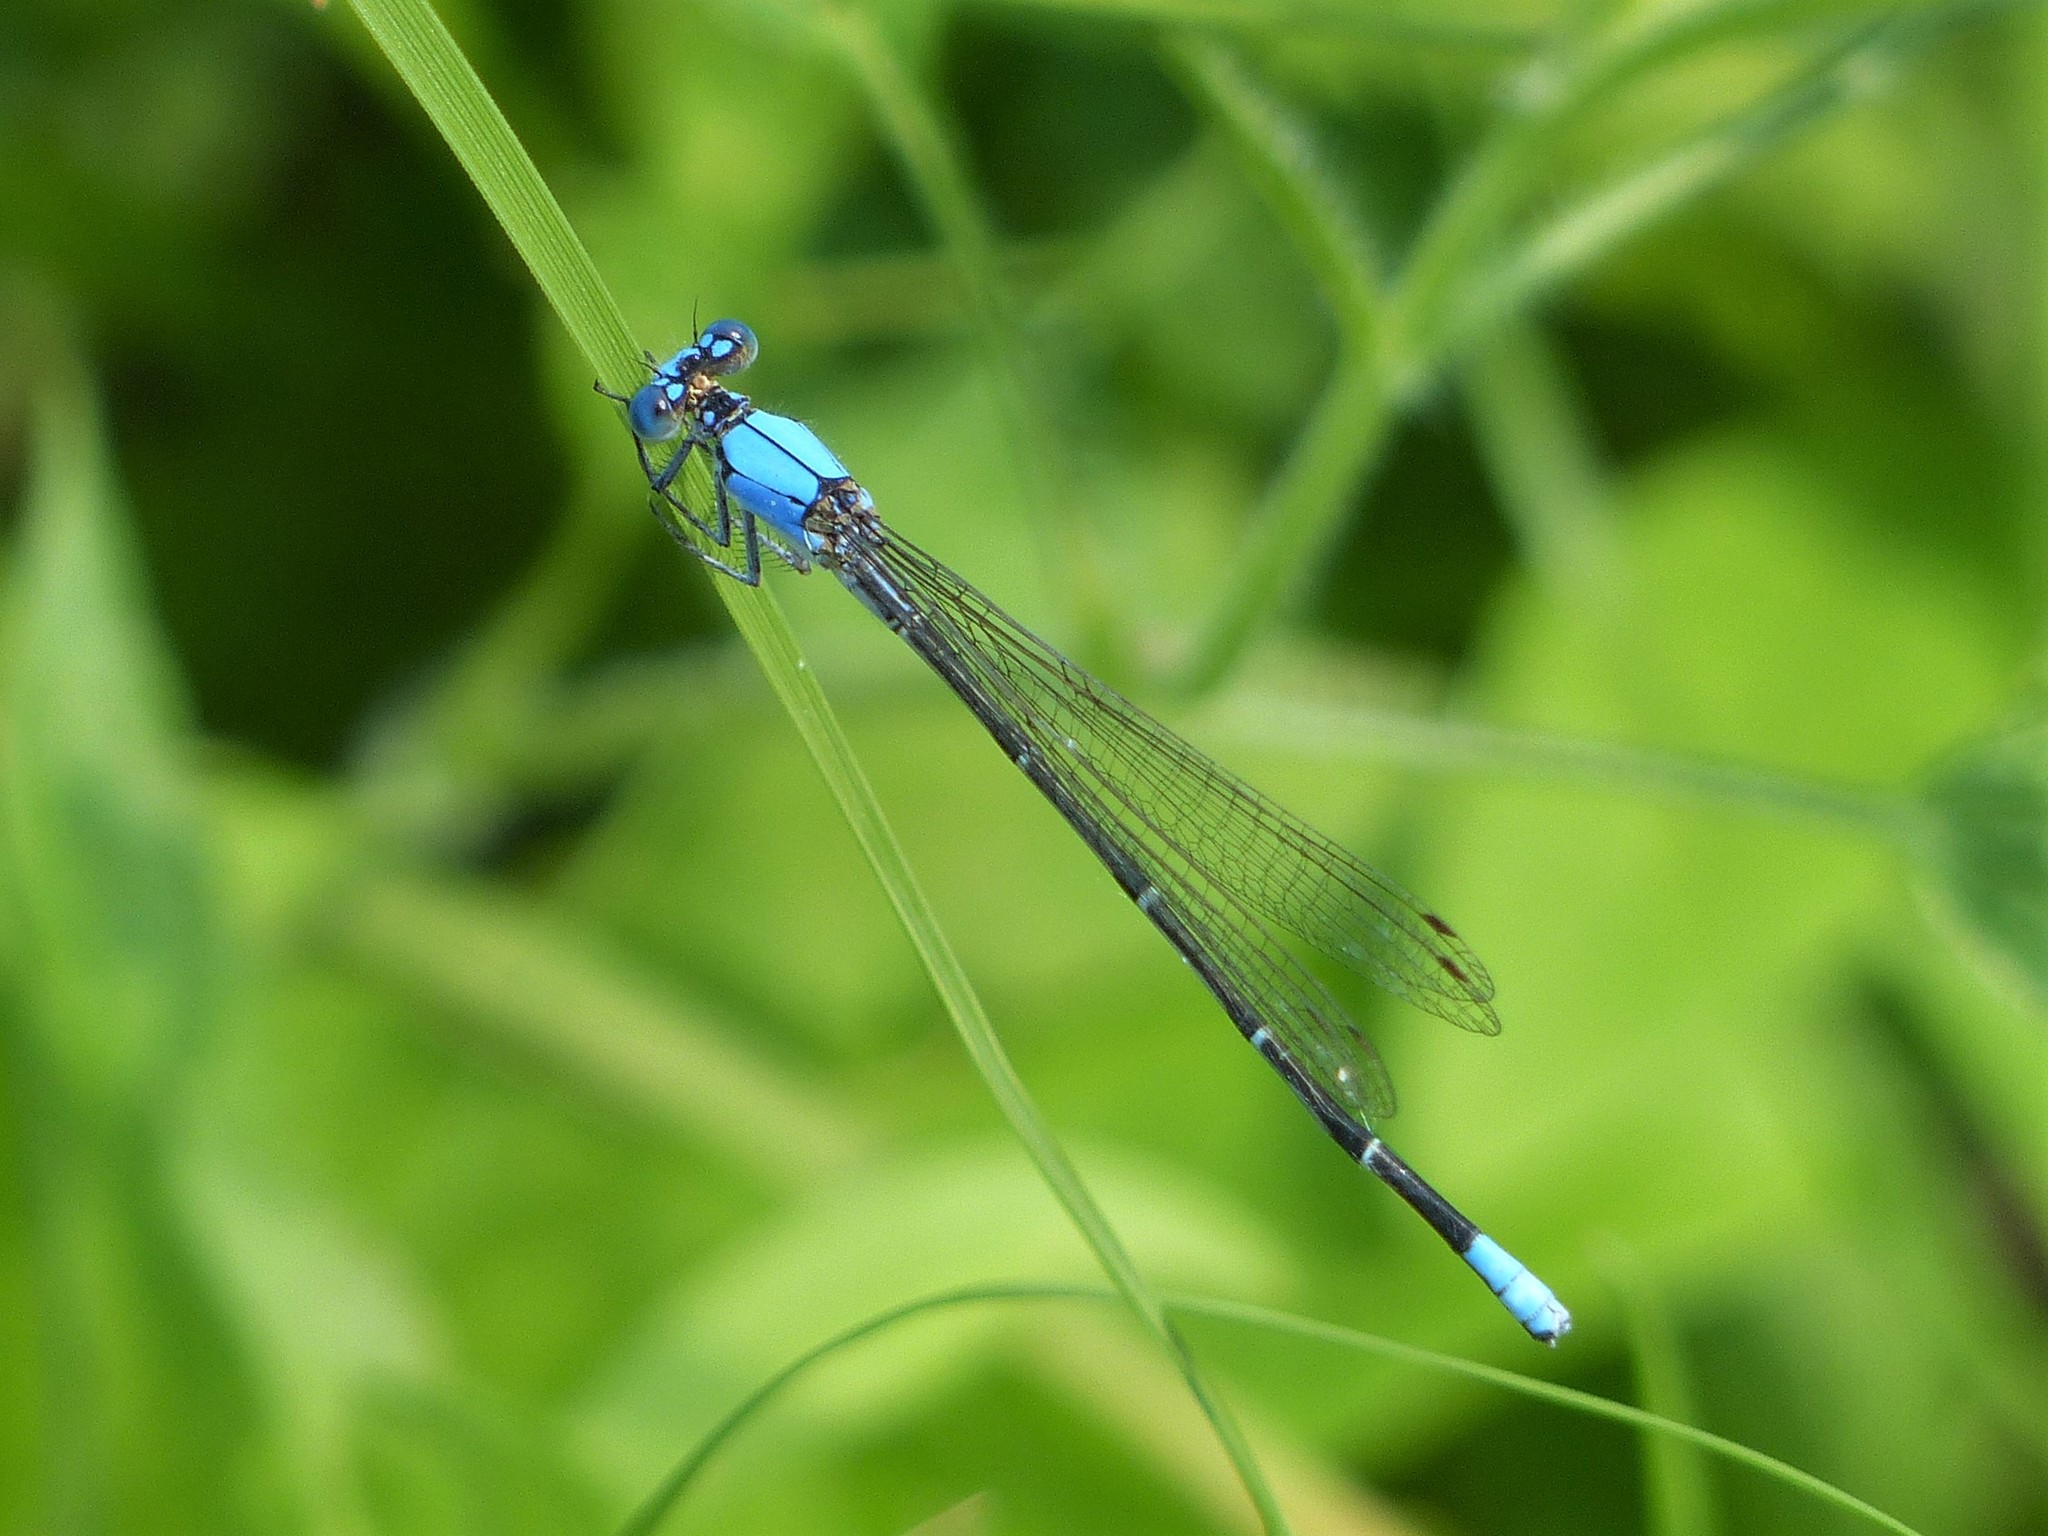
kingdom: Animalia
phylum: Arthropoda
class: Insecta
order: Odonata
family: Coenagrionidae
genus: Argia
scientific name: Argia apicalis
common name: Blue-fronted dancer
